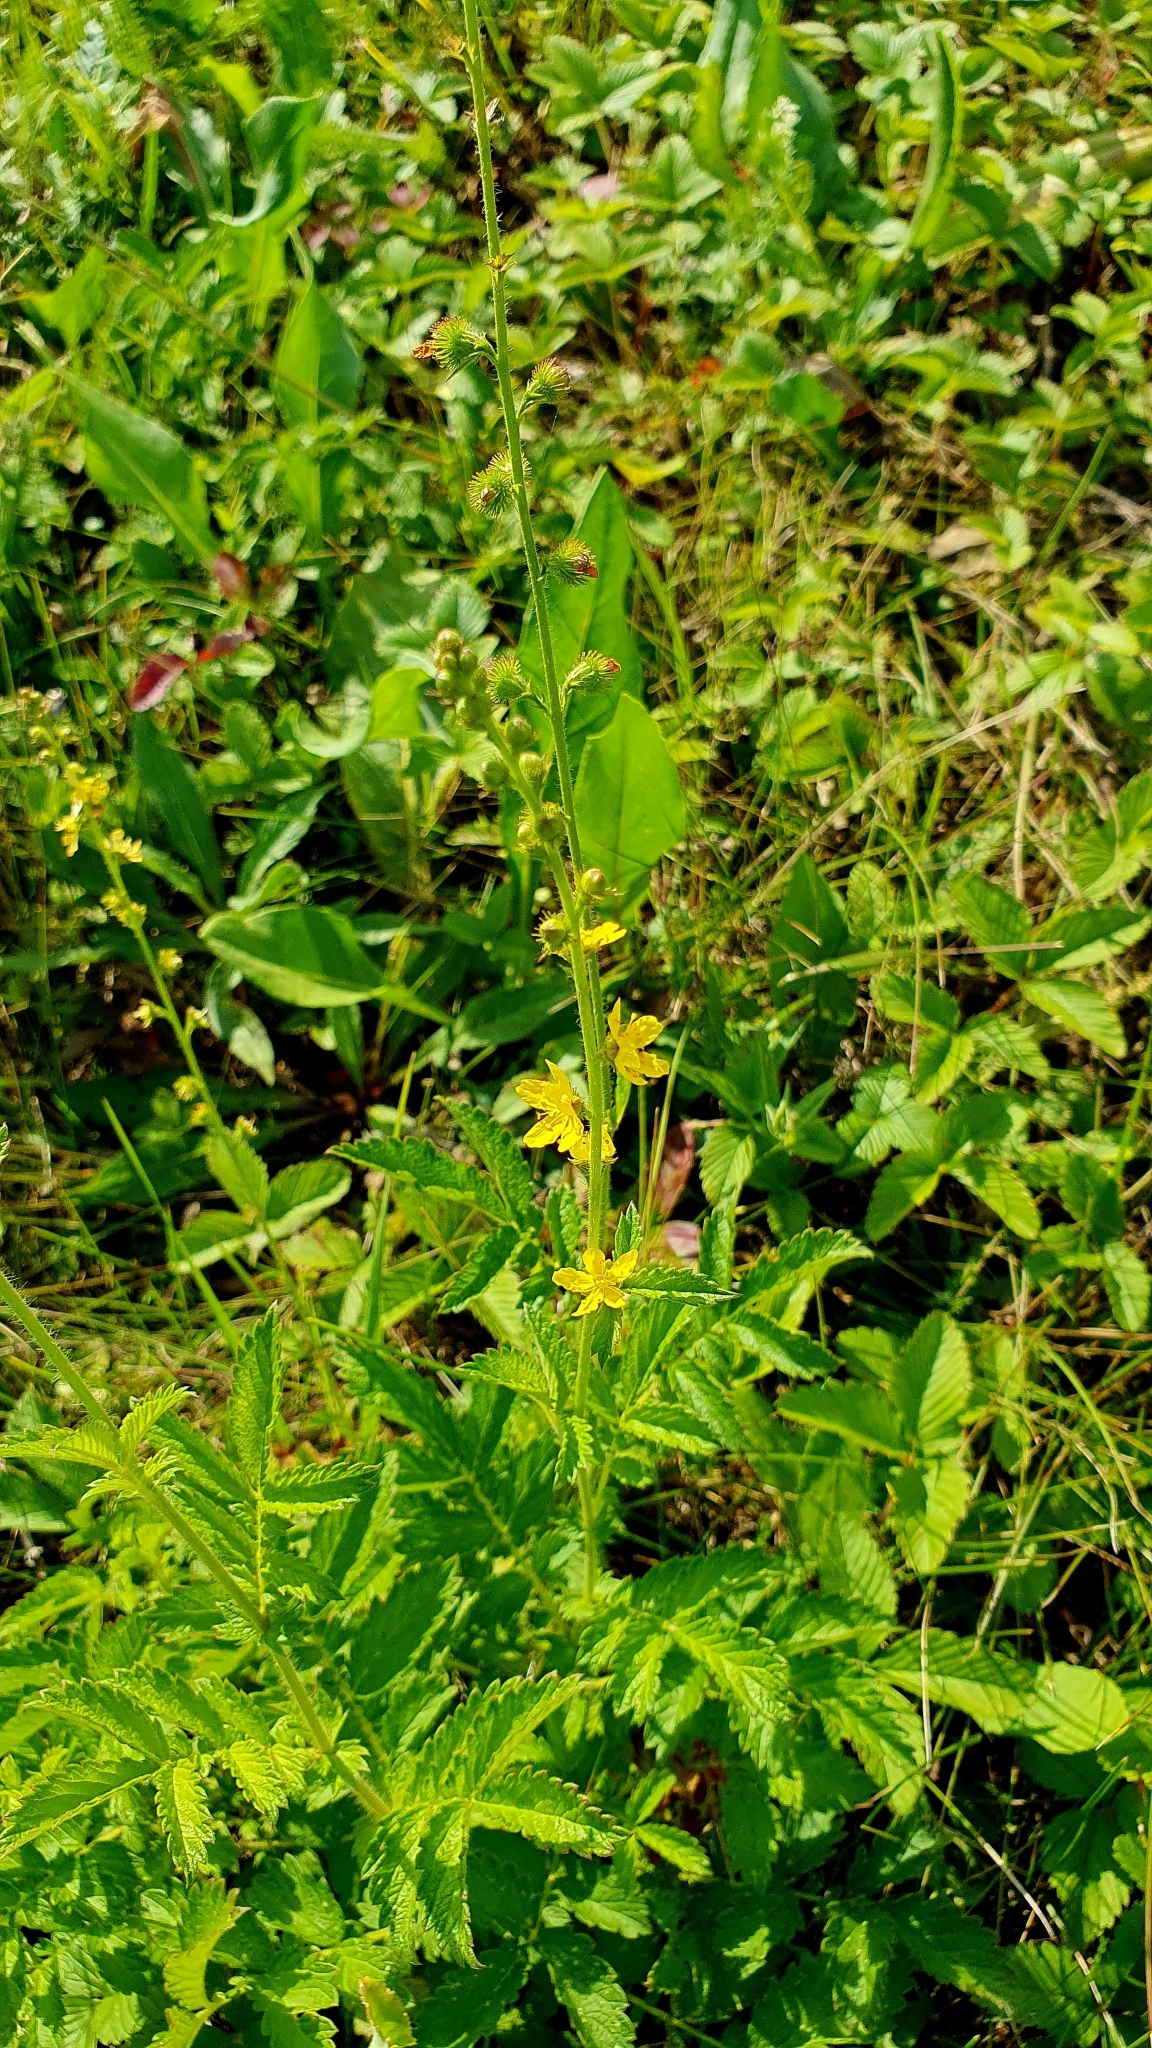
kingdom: Plantae
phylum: Tracheophyta
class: Magnoliopsida
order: Rosales
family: Rosaceae
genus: Agrimonia
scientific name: Agrimonia eupatoria
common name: Agrimony
